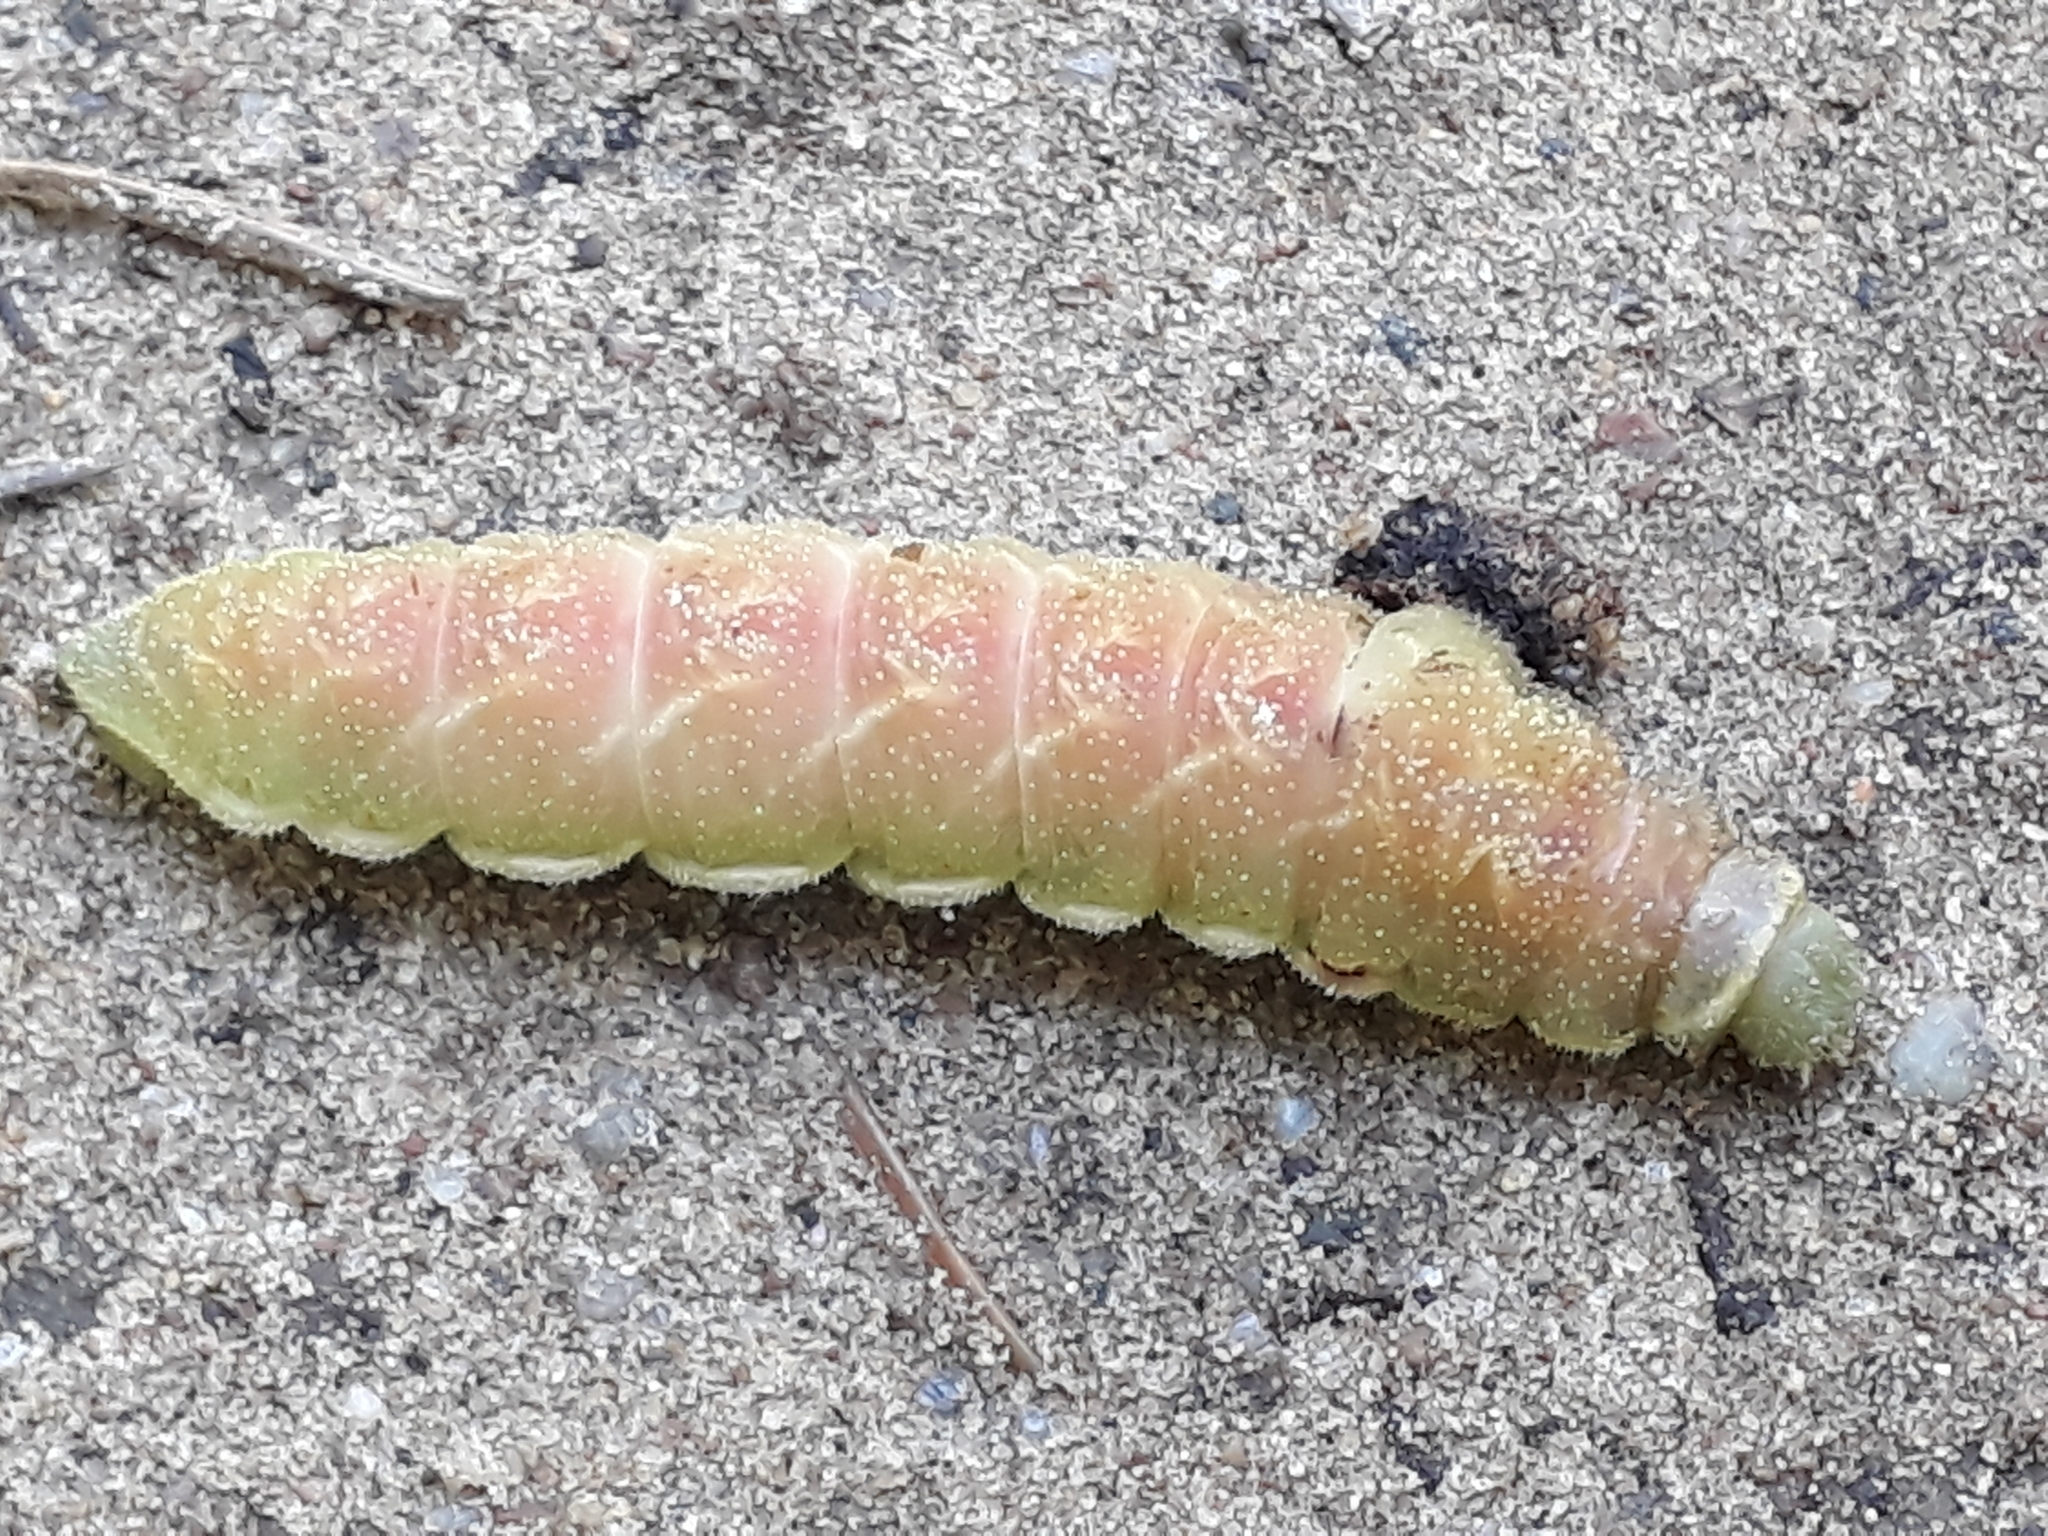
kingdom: Animalia
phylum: Arthropoda
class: Insecta
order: Lepidoptera
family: Saturniidae
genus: Aglia
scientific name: Aglia tau
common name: Tau emperor
